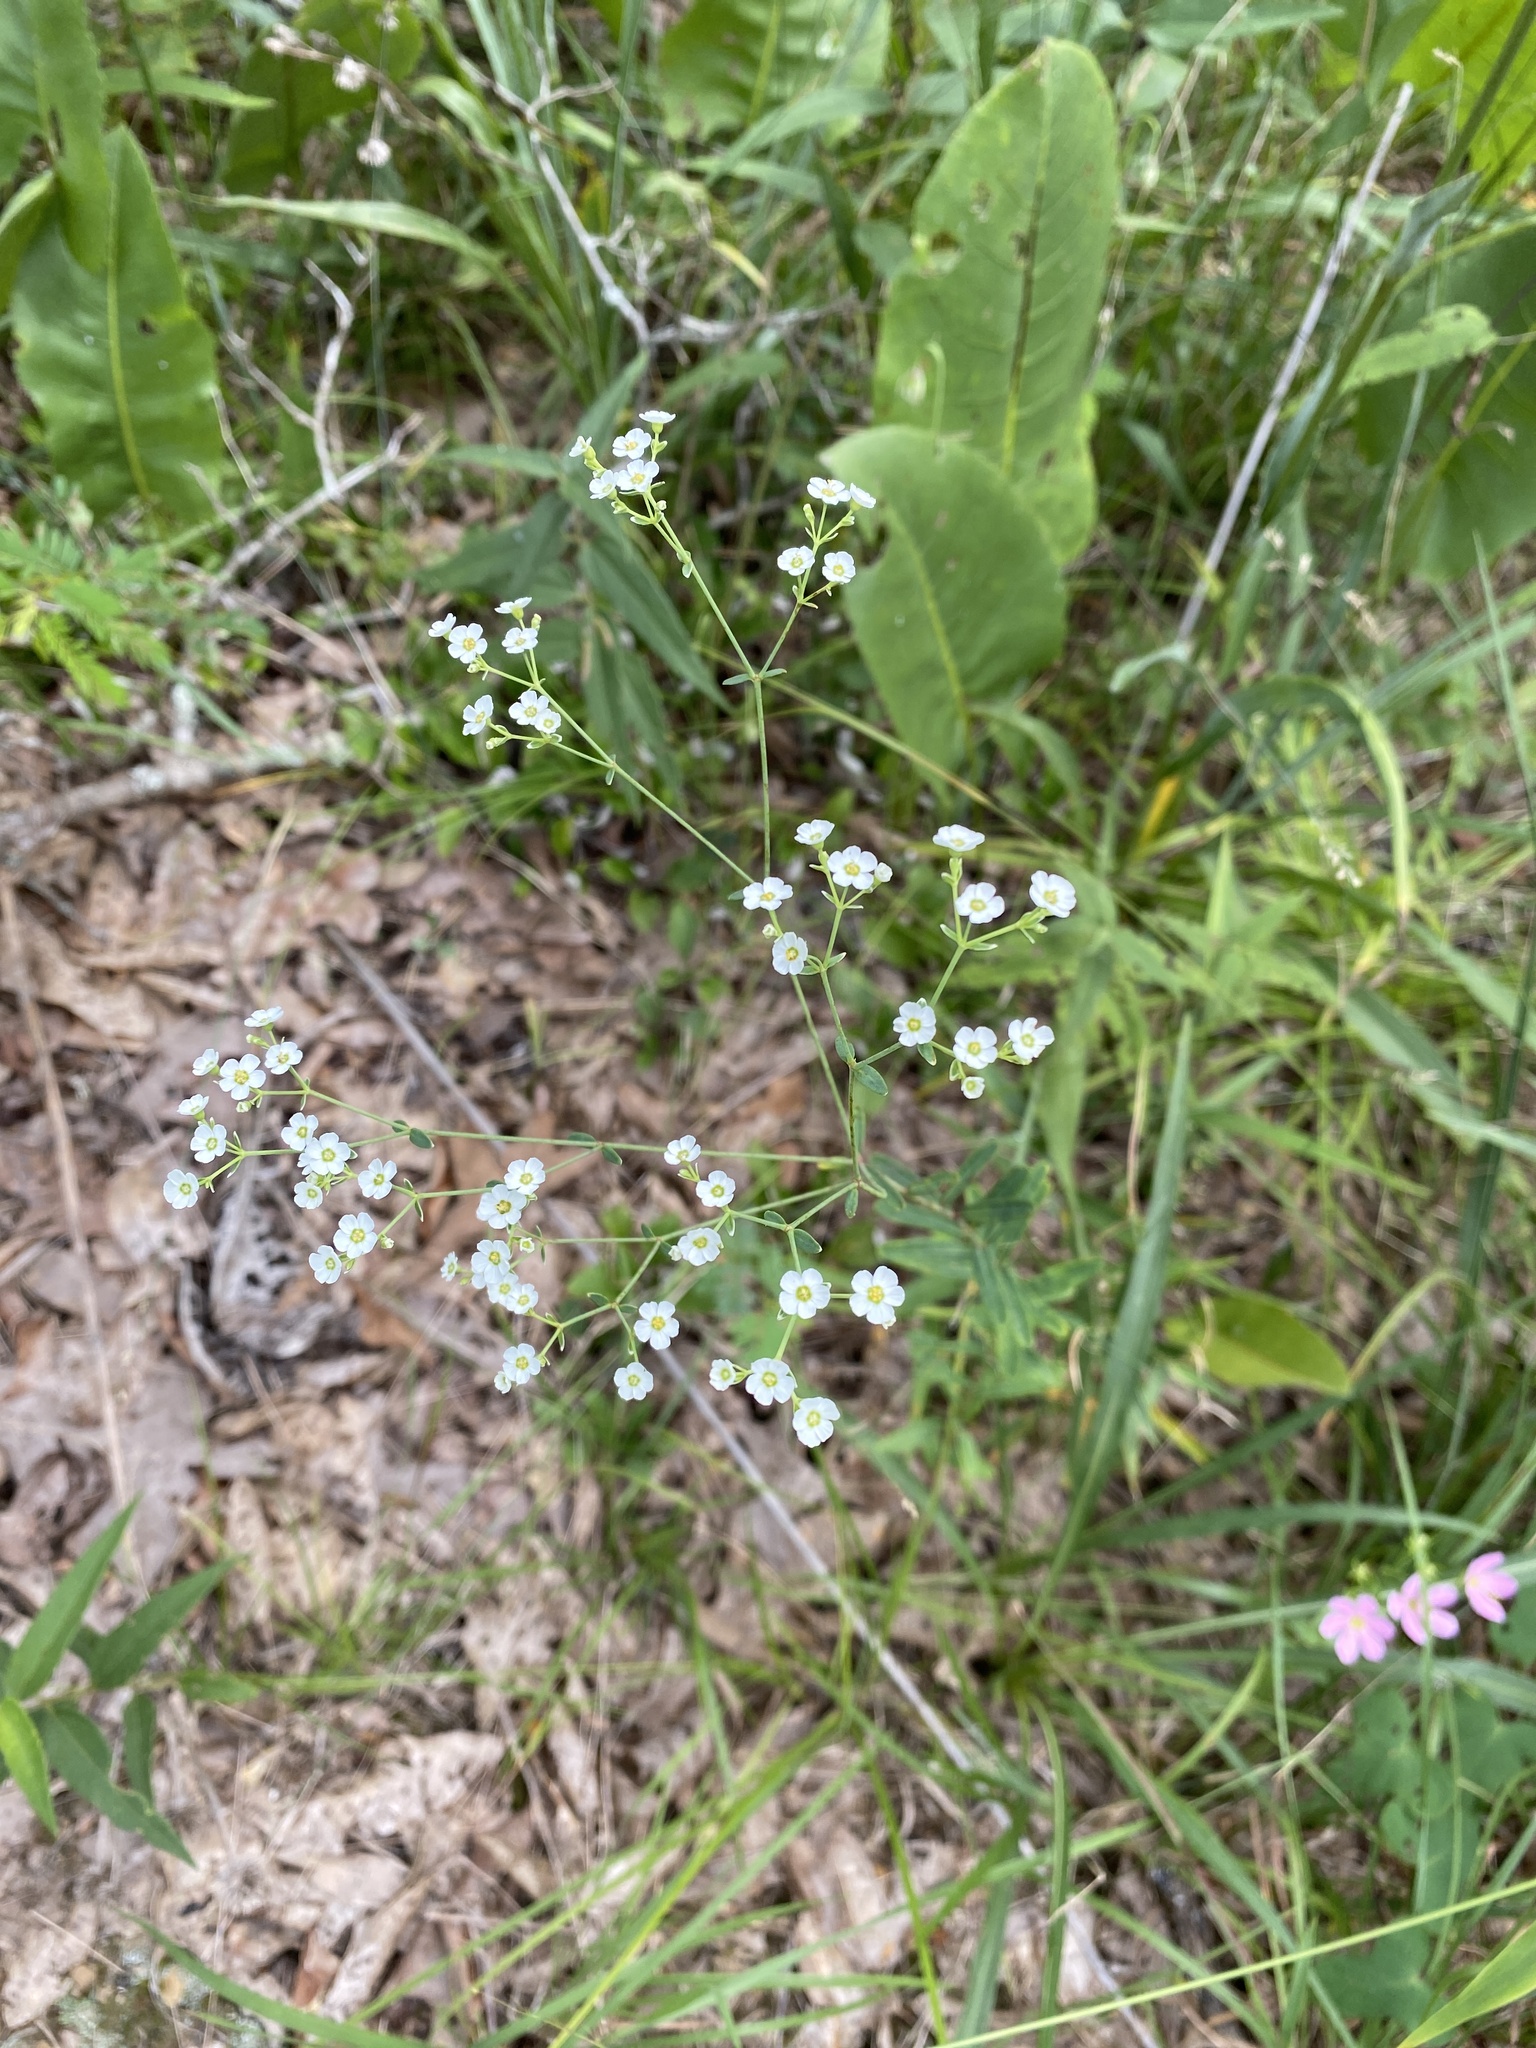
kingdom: Plantae
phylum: Tracheophyta
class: Magnoliopsida
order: Malpighiales
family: Euphorbiaceae
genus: Euphorbia
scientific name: Euphorbia corollata
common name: Flowering spurge
